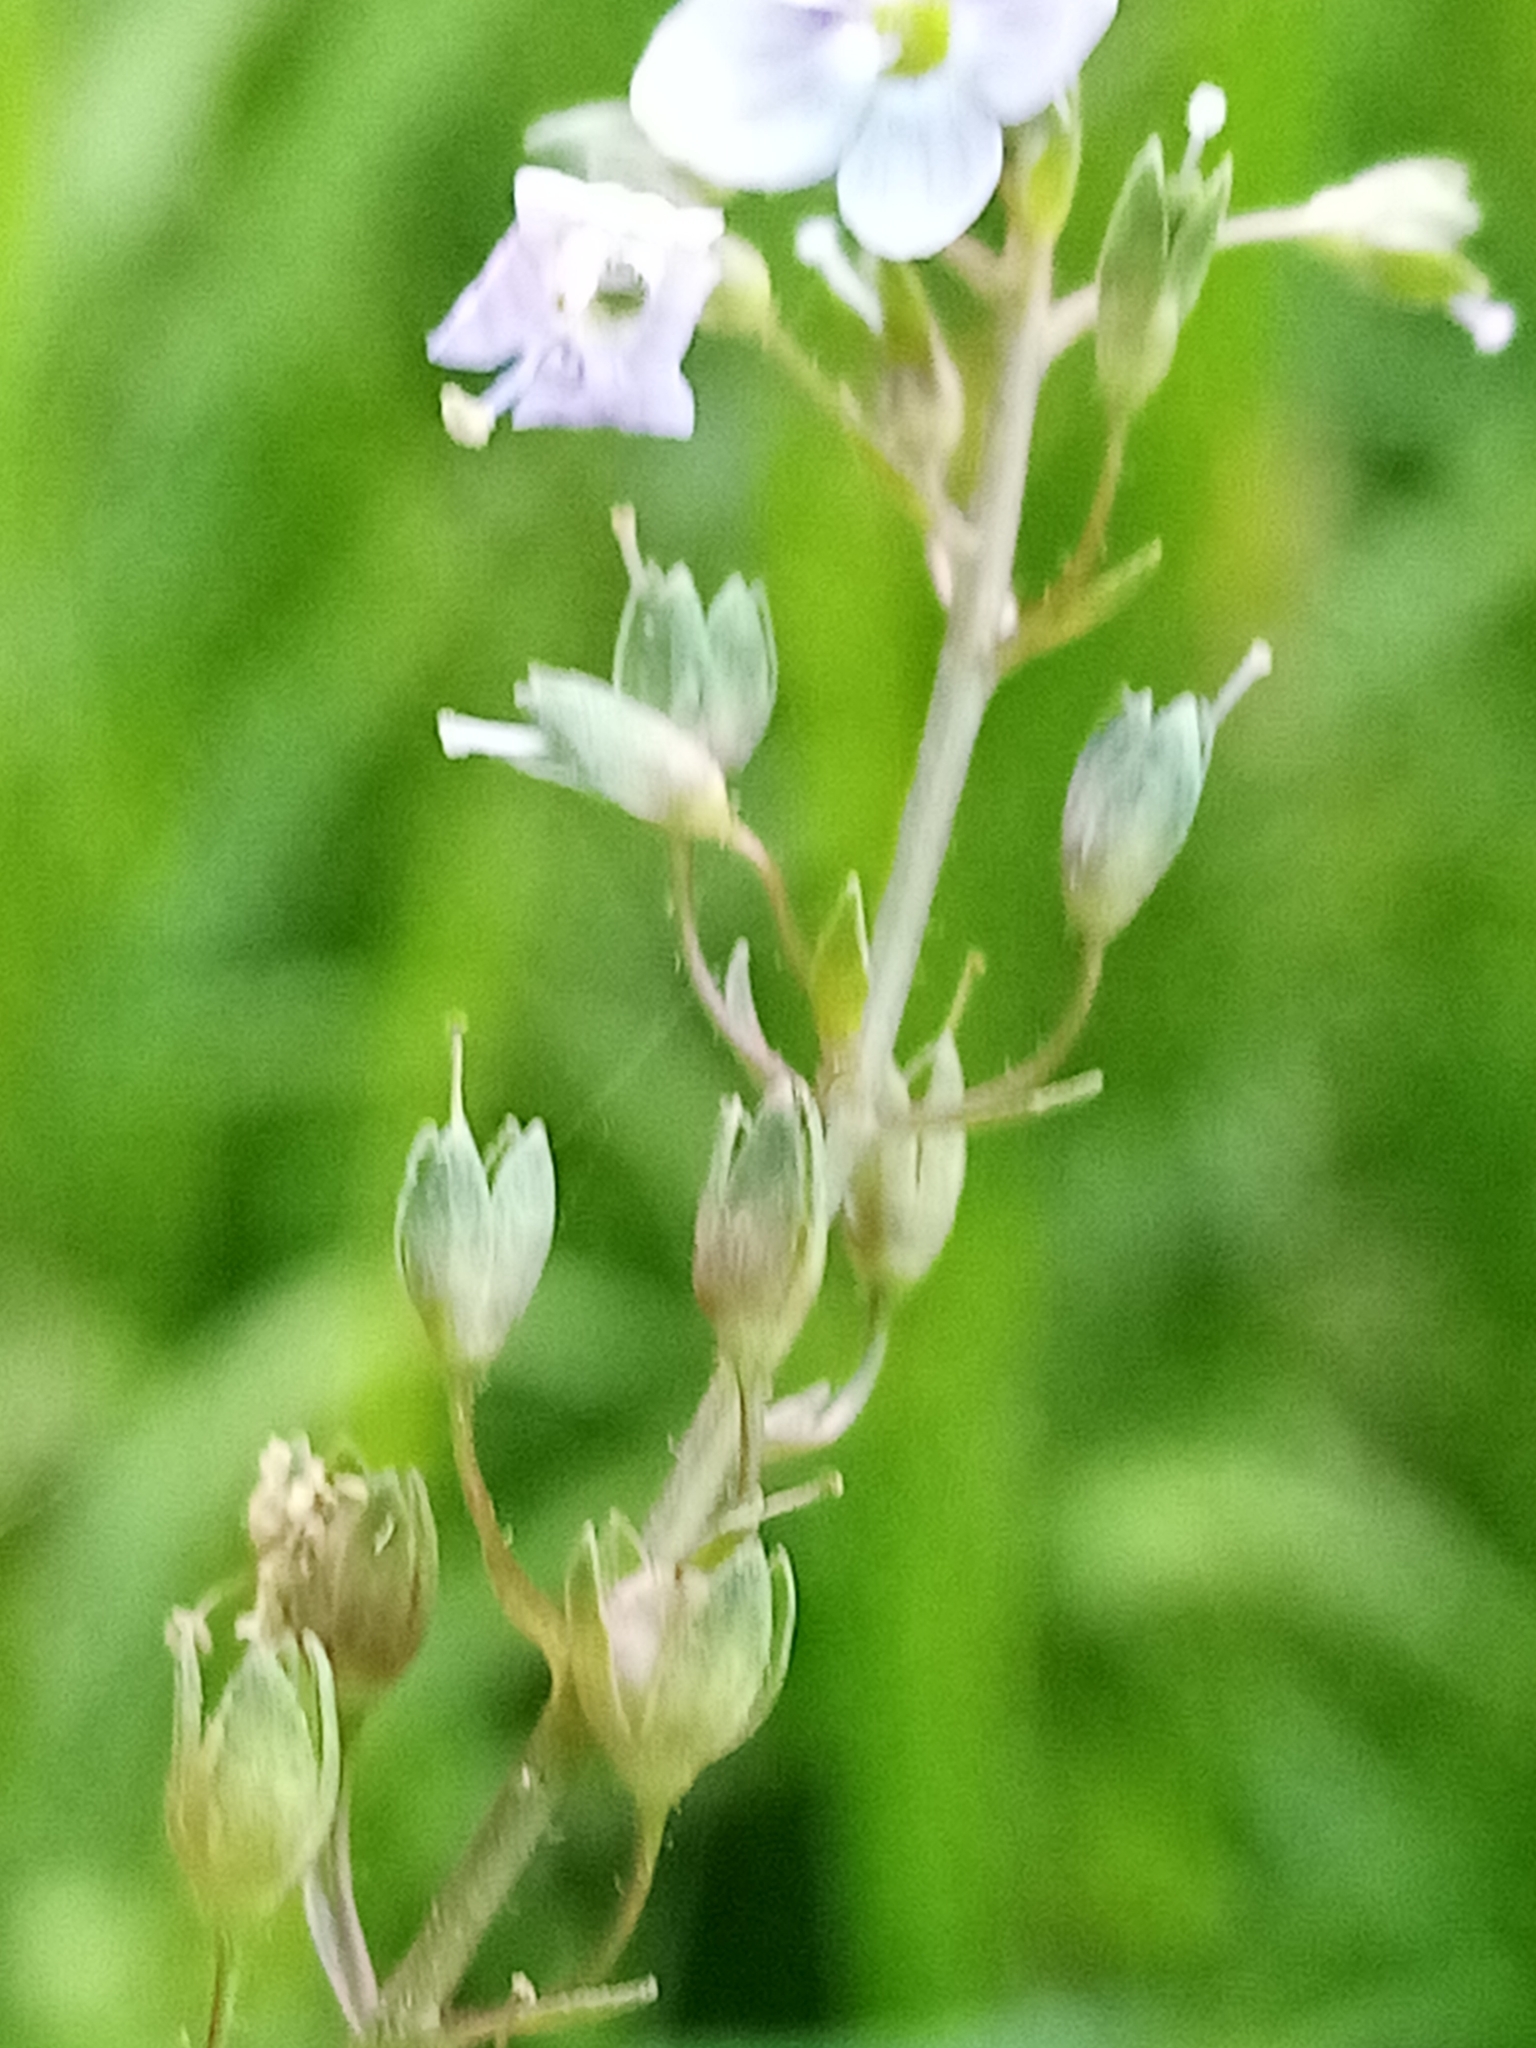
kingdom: Plantae
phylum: Tracheophyta
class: Magnoliopsida
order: Lamiales
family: Plantaginaceae
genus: Veronica
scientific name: Veronica anagallis-aquatica
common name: Water speedwell
